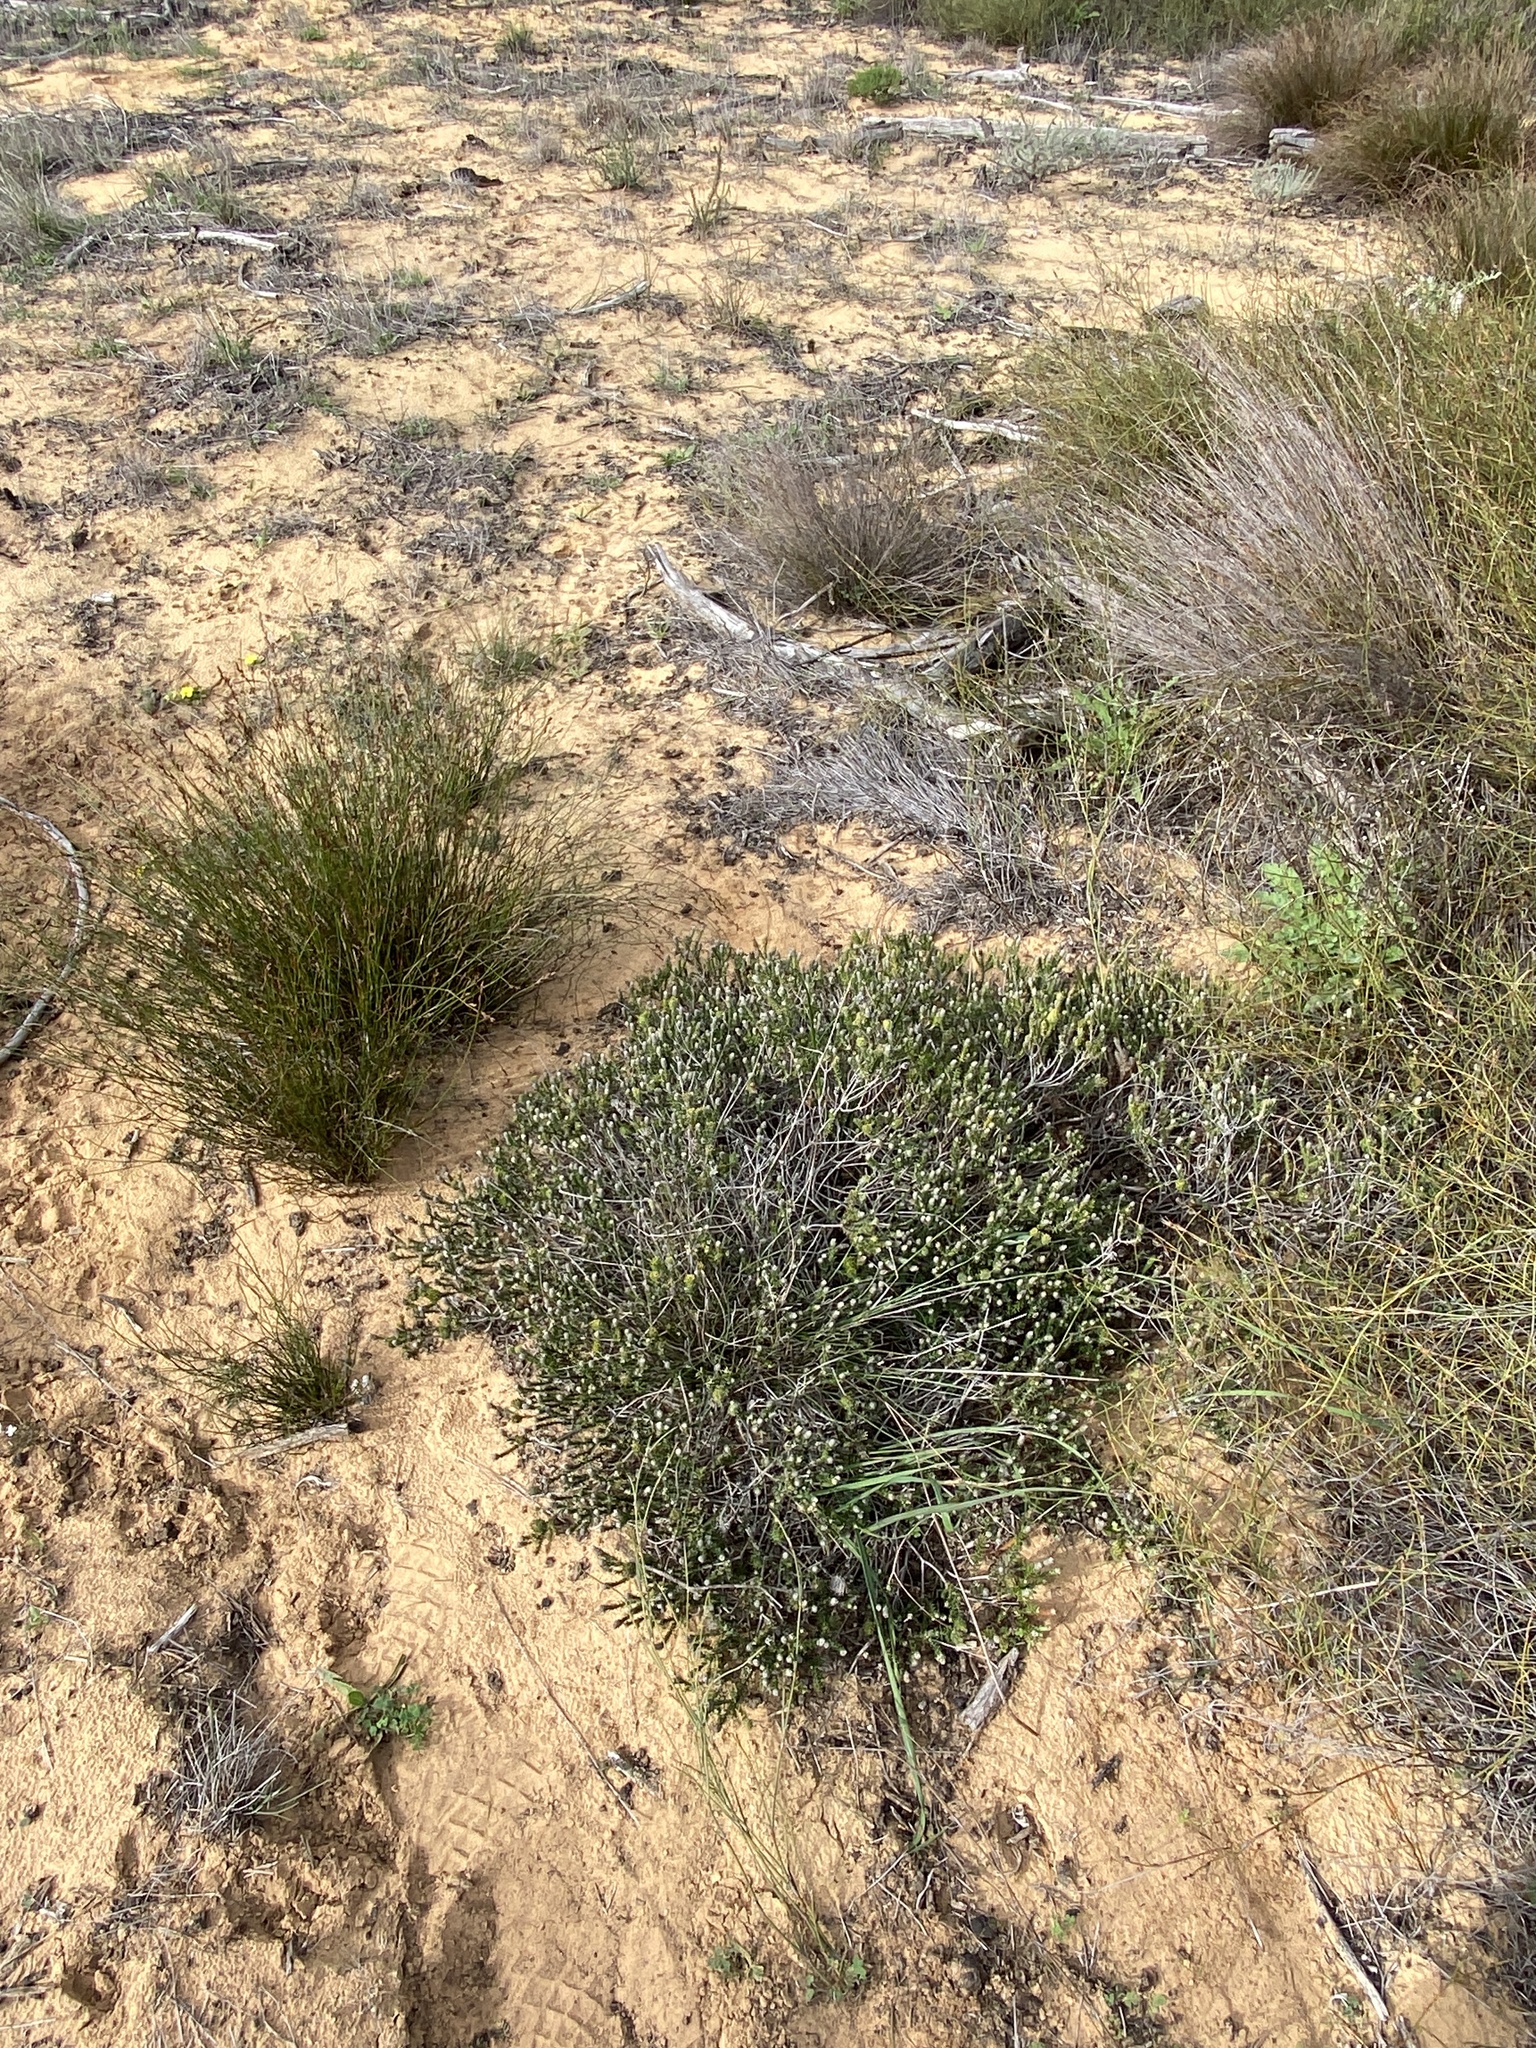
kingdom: Plantae
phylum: Tracheophyta
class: Magnoliopsida
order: Rosales
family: Rhamnaceae
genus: Phylica
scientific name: Phylica thunbergiana
